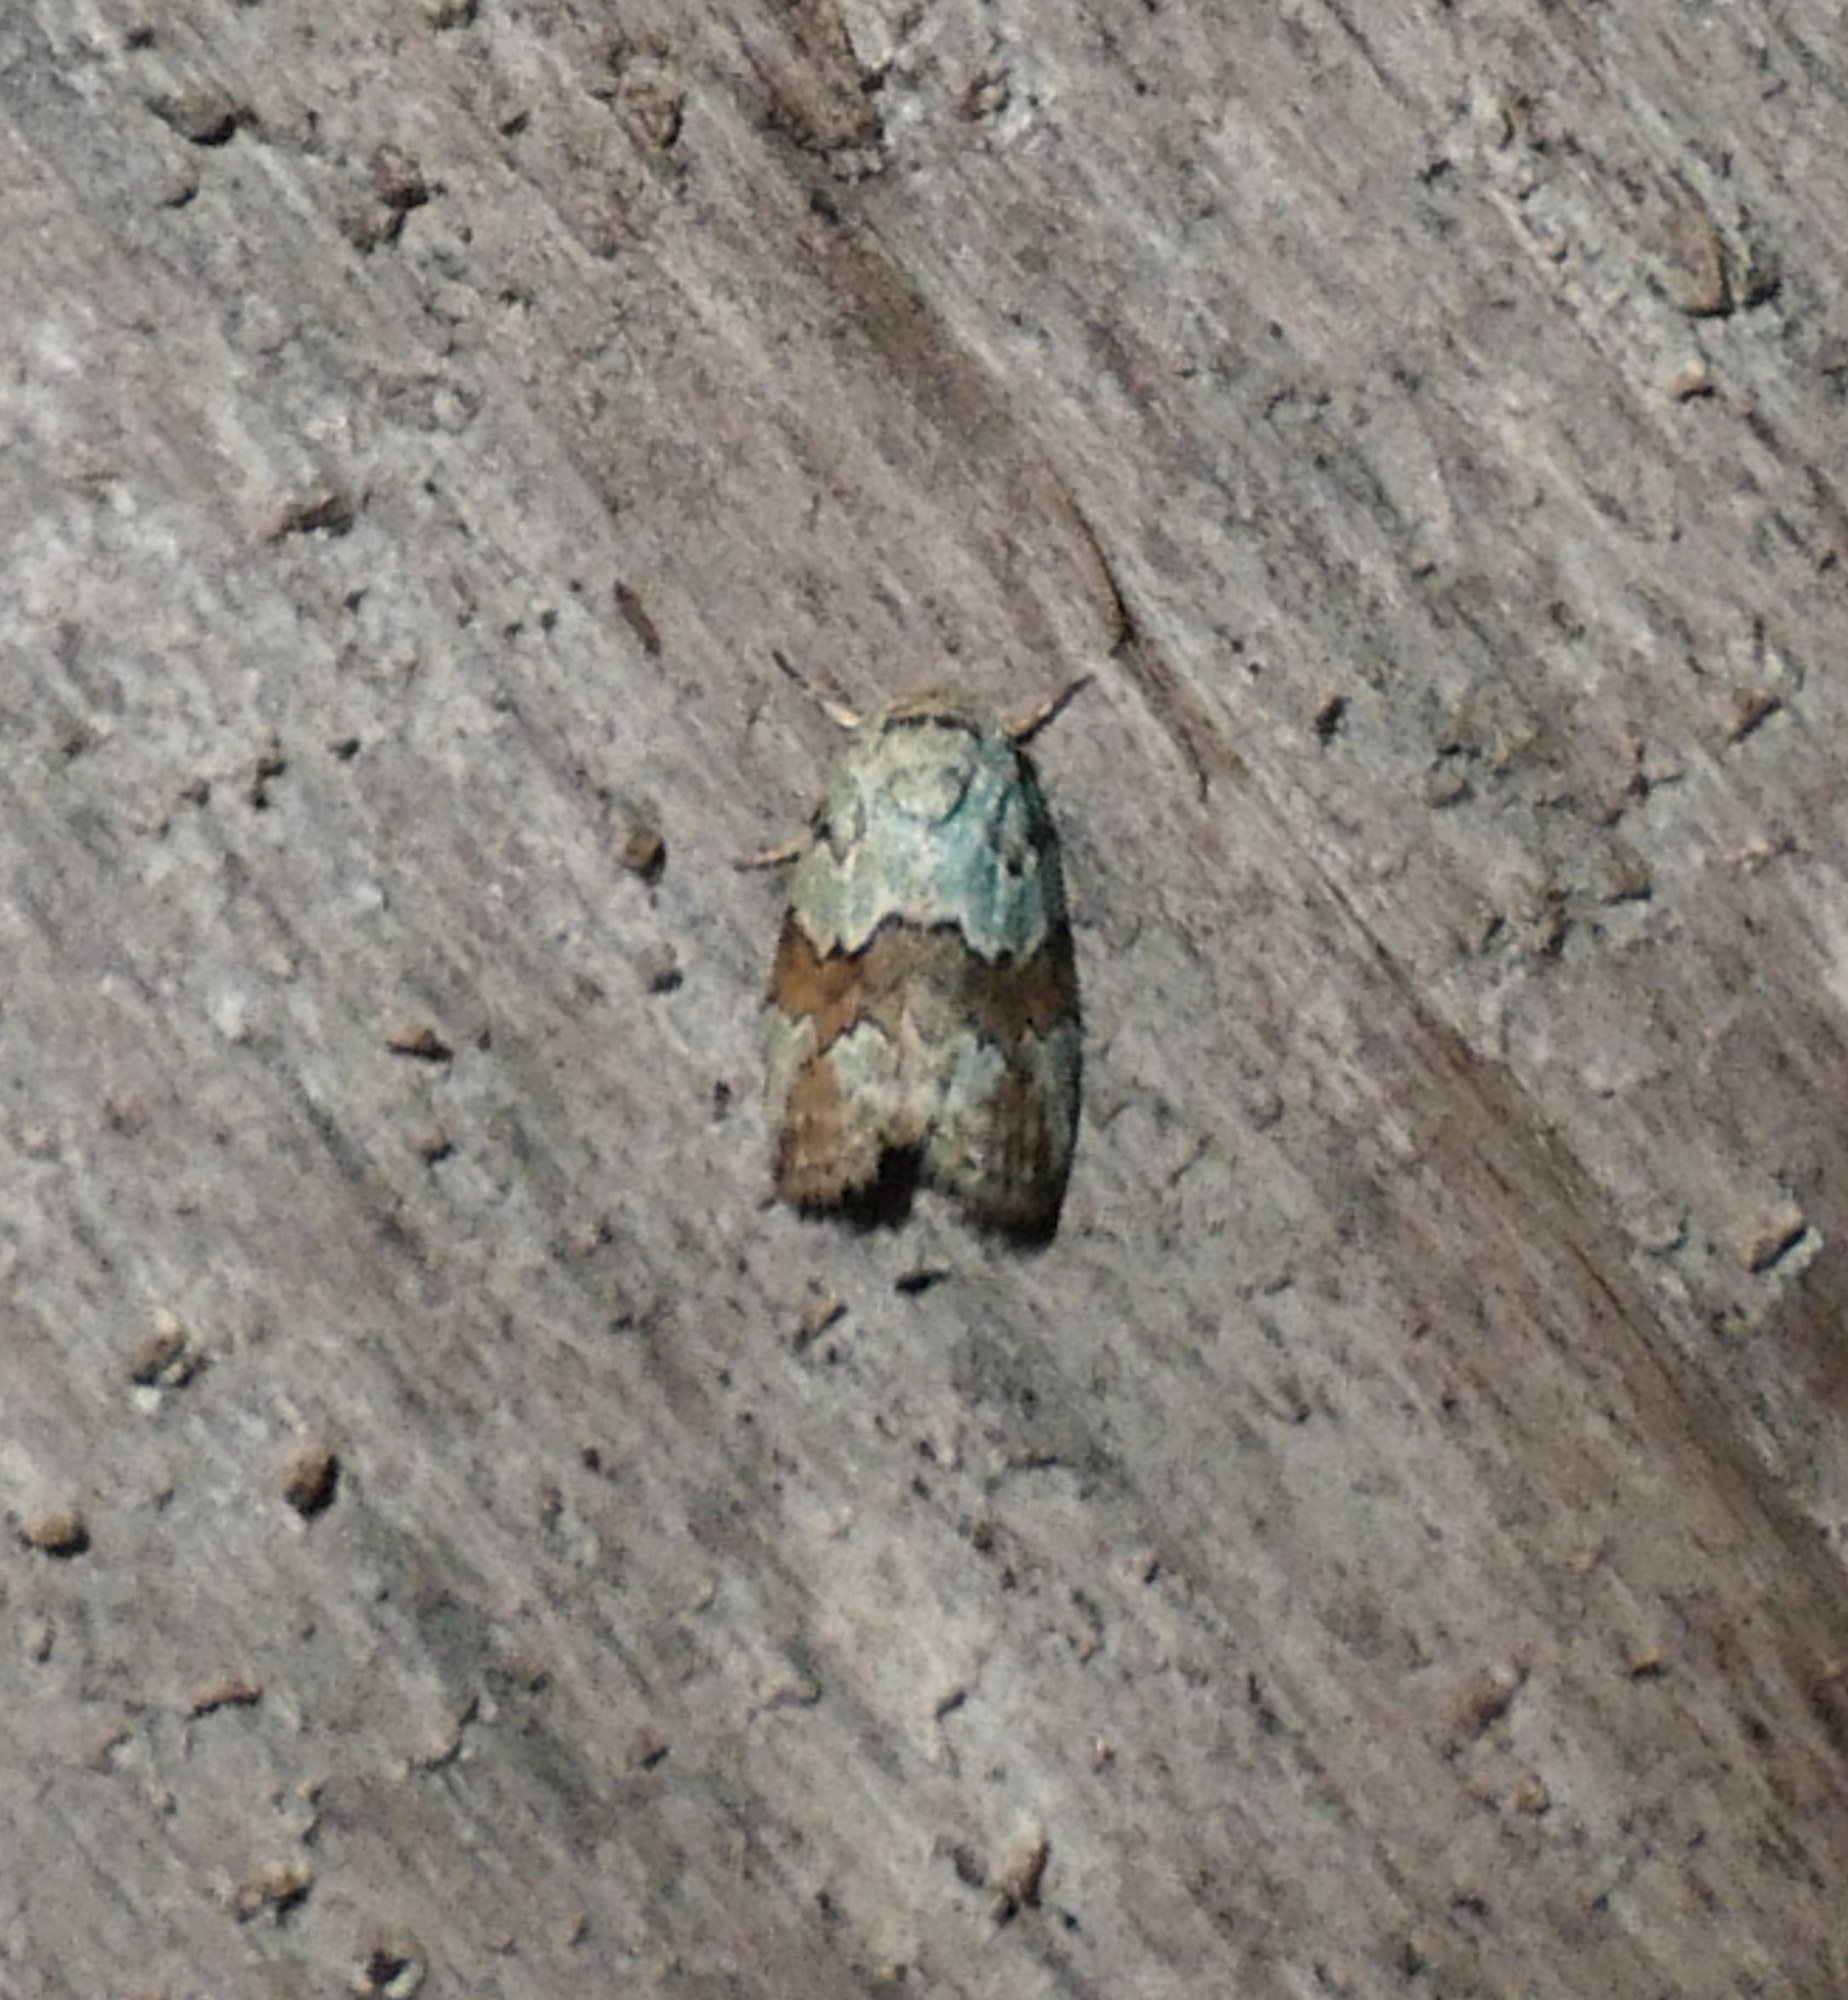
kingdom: Animalia
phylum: Arthropoda
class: Insecta
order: Lepidoptera
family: Nolidae
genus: Afrida
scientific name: Afrida ydatodes
